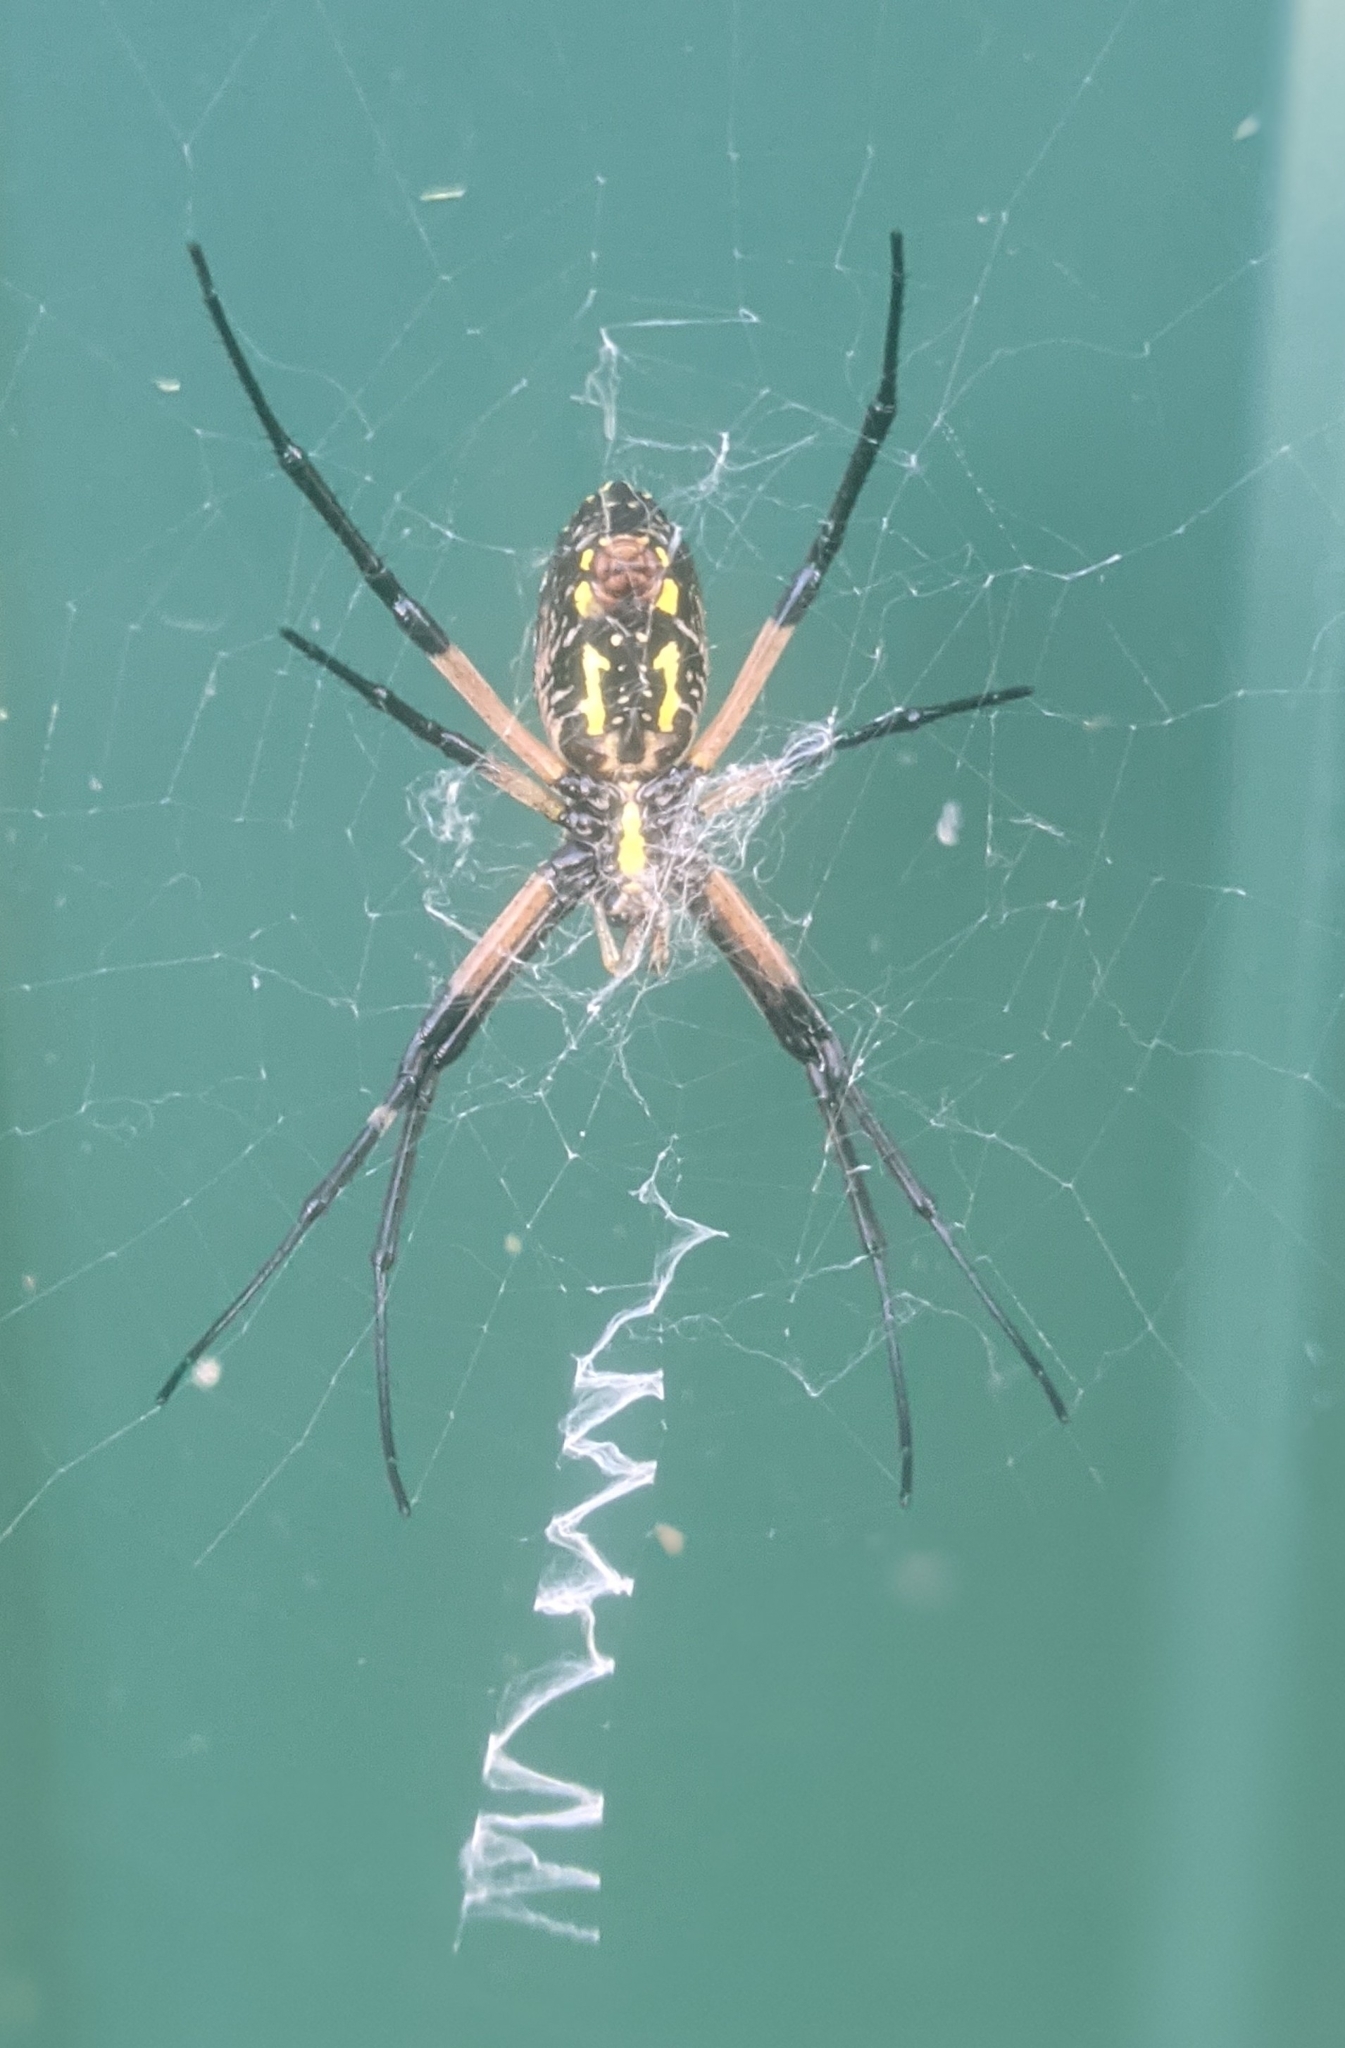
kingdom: Animalia
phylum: Arthropoda
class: Arachnida
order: Araneae
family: Araneidae
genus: Argiope
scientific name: Argiope aurantia
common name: Orb weavers
